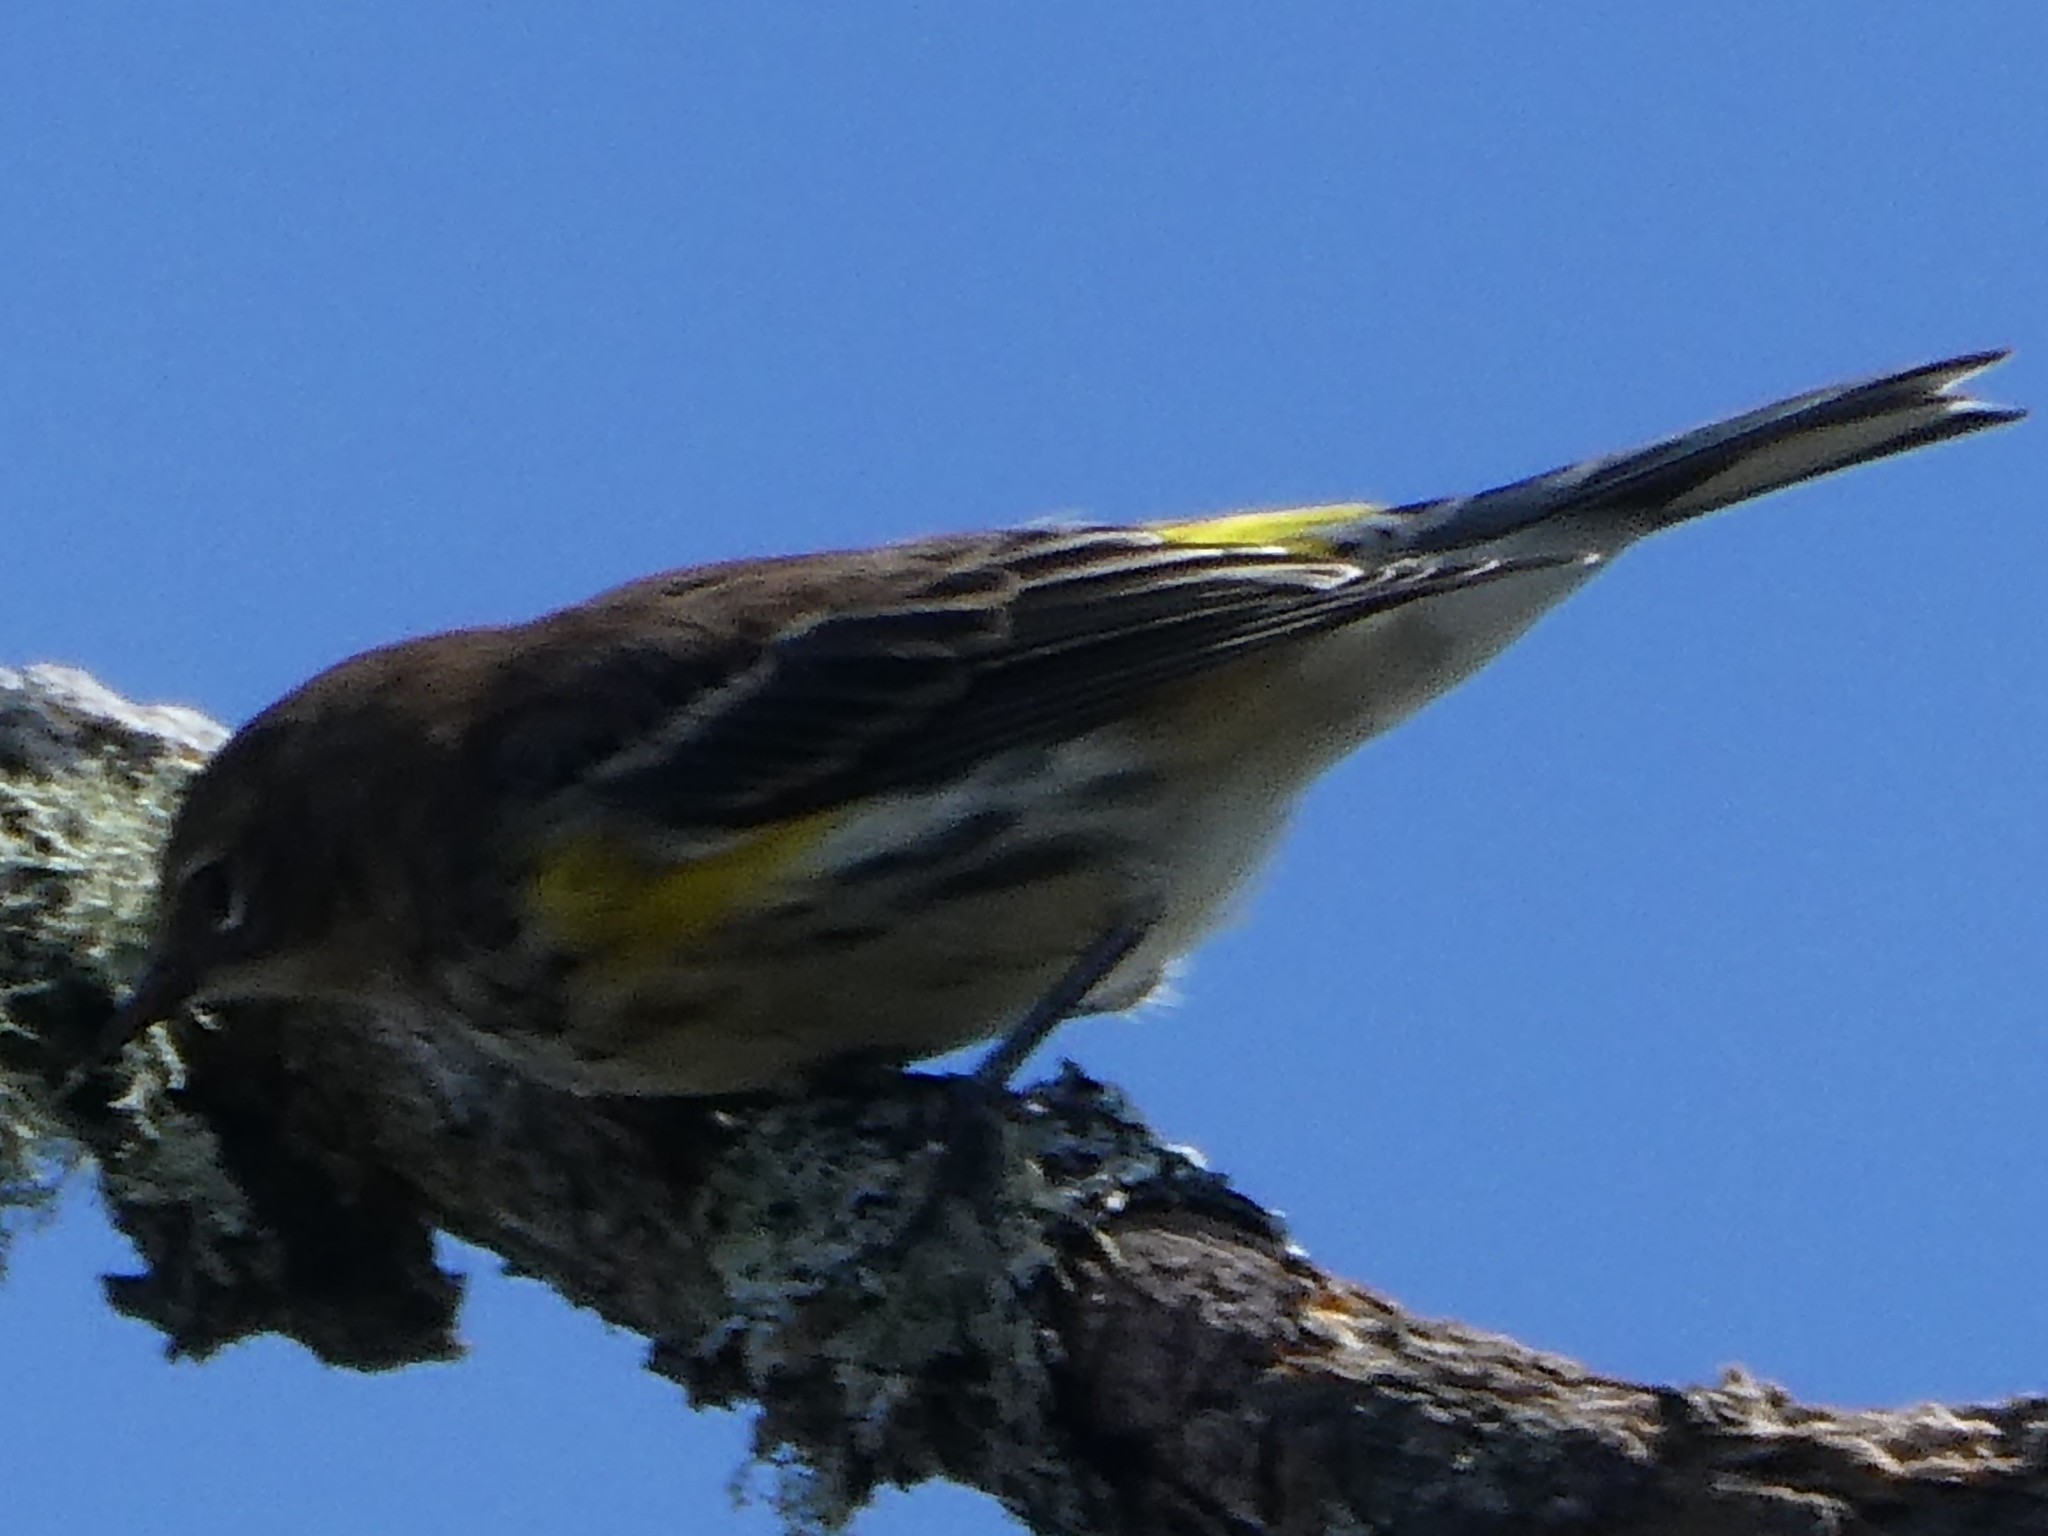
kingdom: Animalia
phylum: Chordata
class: Aves
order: Passeriformes
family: Parulidae
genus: Setophaga
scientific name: Setophaga coronata
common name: Myrtle warbler
